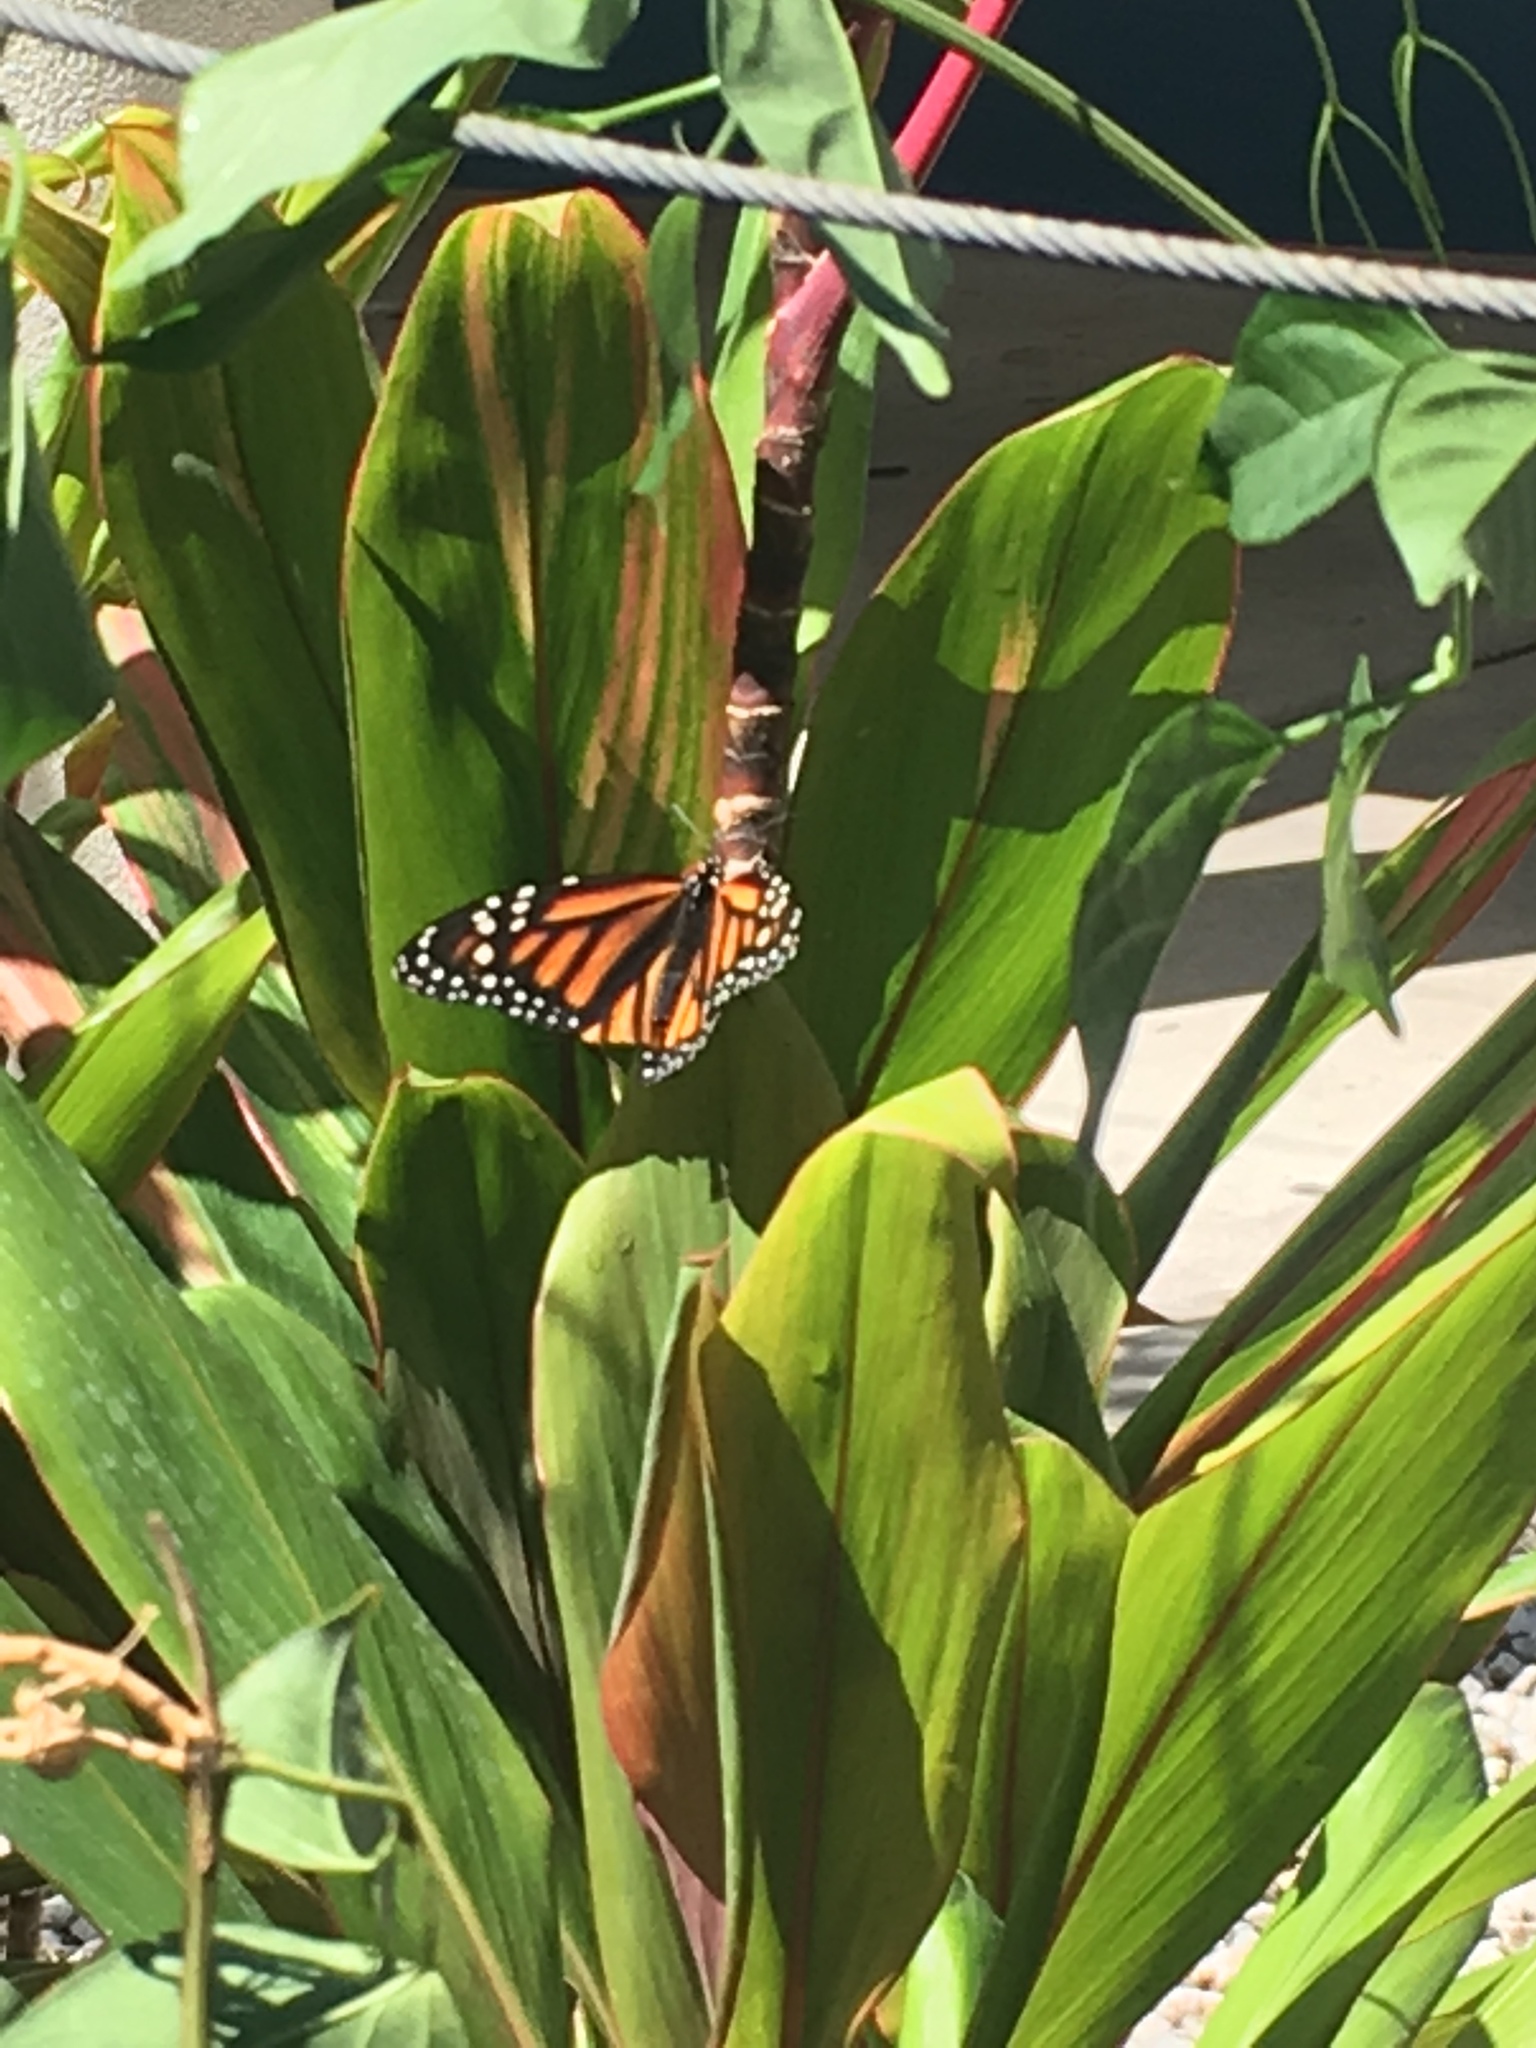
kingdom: Animalia
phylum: Arthropoda
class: Insecta
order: Lepidoptera
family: Nymphalidae
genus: Danaus
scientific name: Danaus plexippus
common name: Monarch
